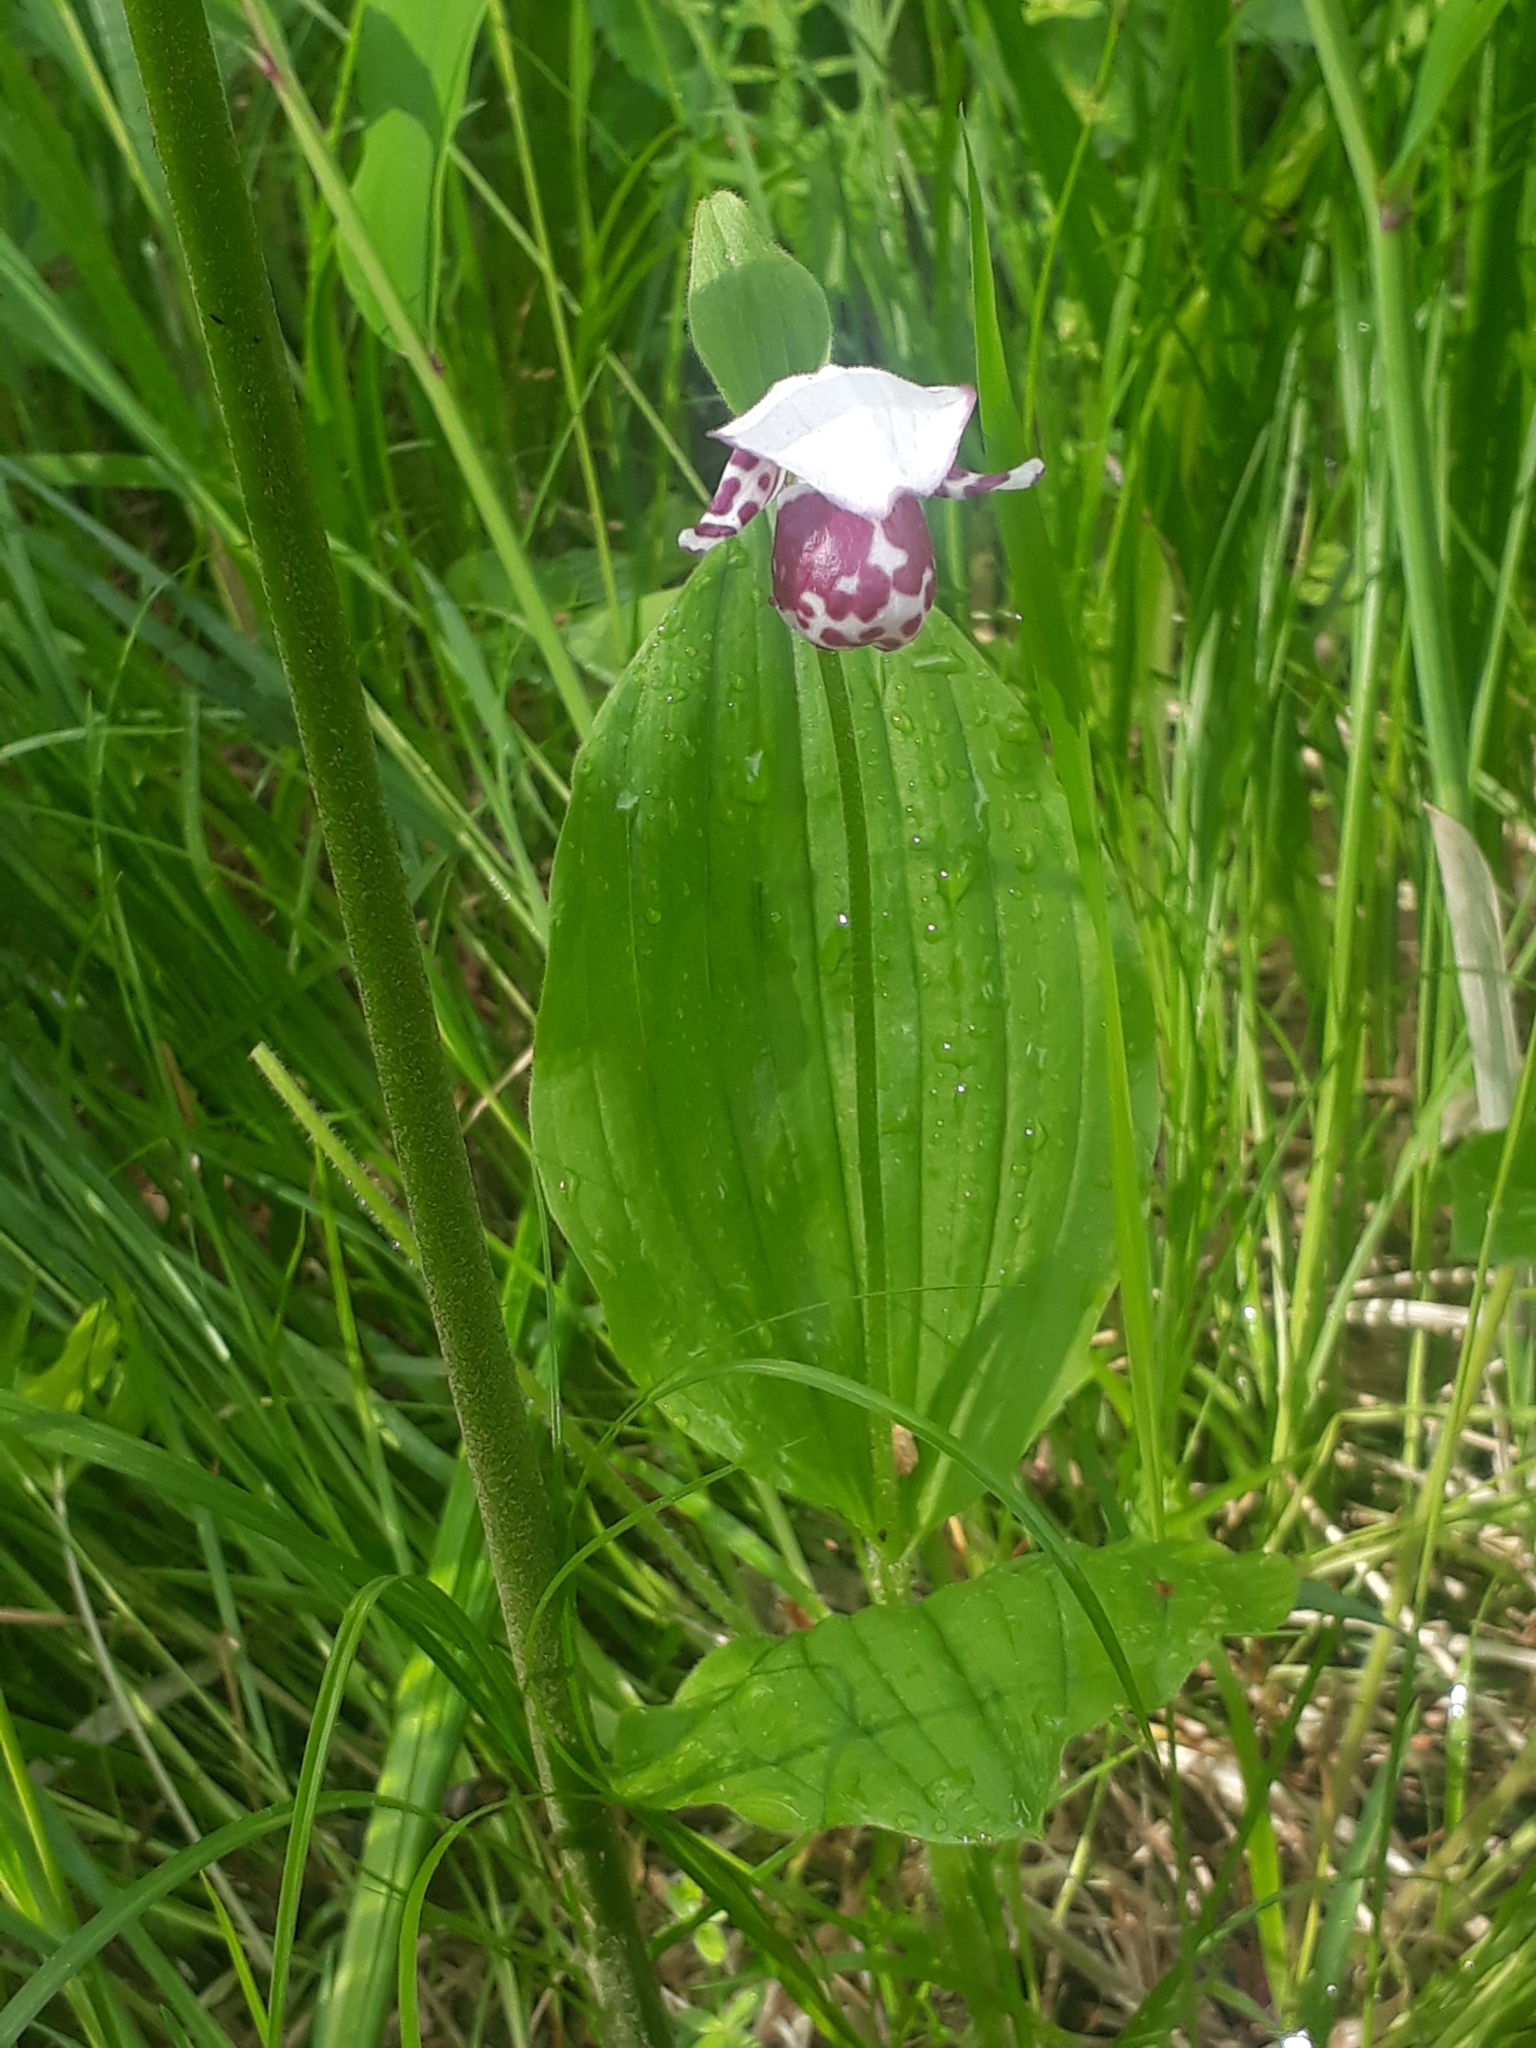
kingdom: Plantae
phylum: Tracheophyta
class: Liliopsida
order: Asparagales
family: Orchidaceae
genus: Cypripedium
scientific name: Cypripedium guttatum
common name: Pink lady slipper
